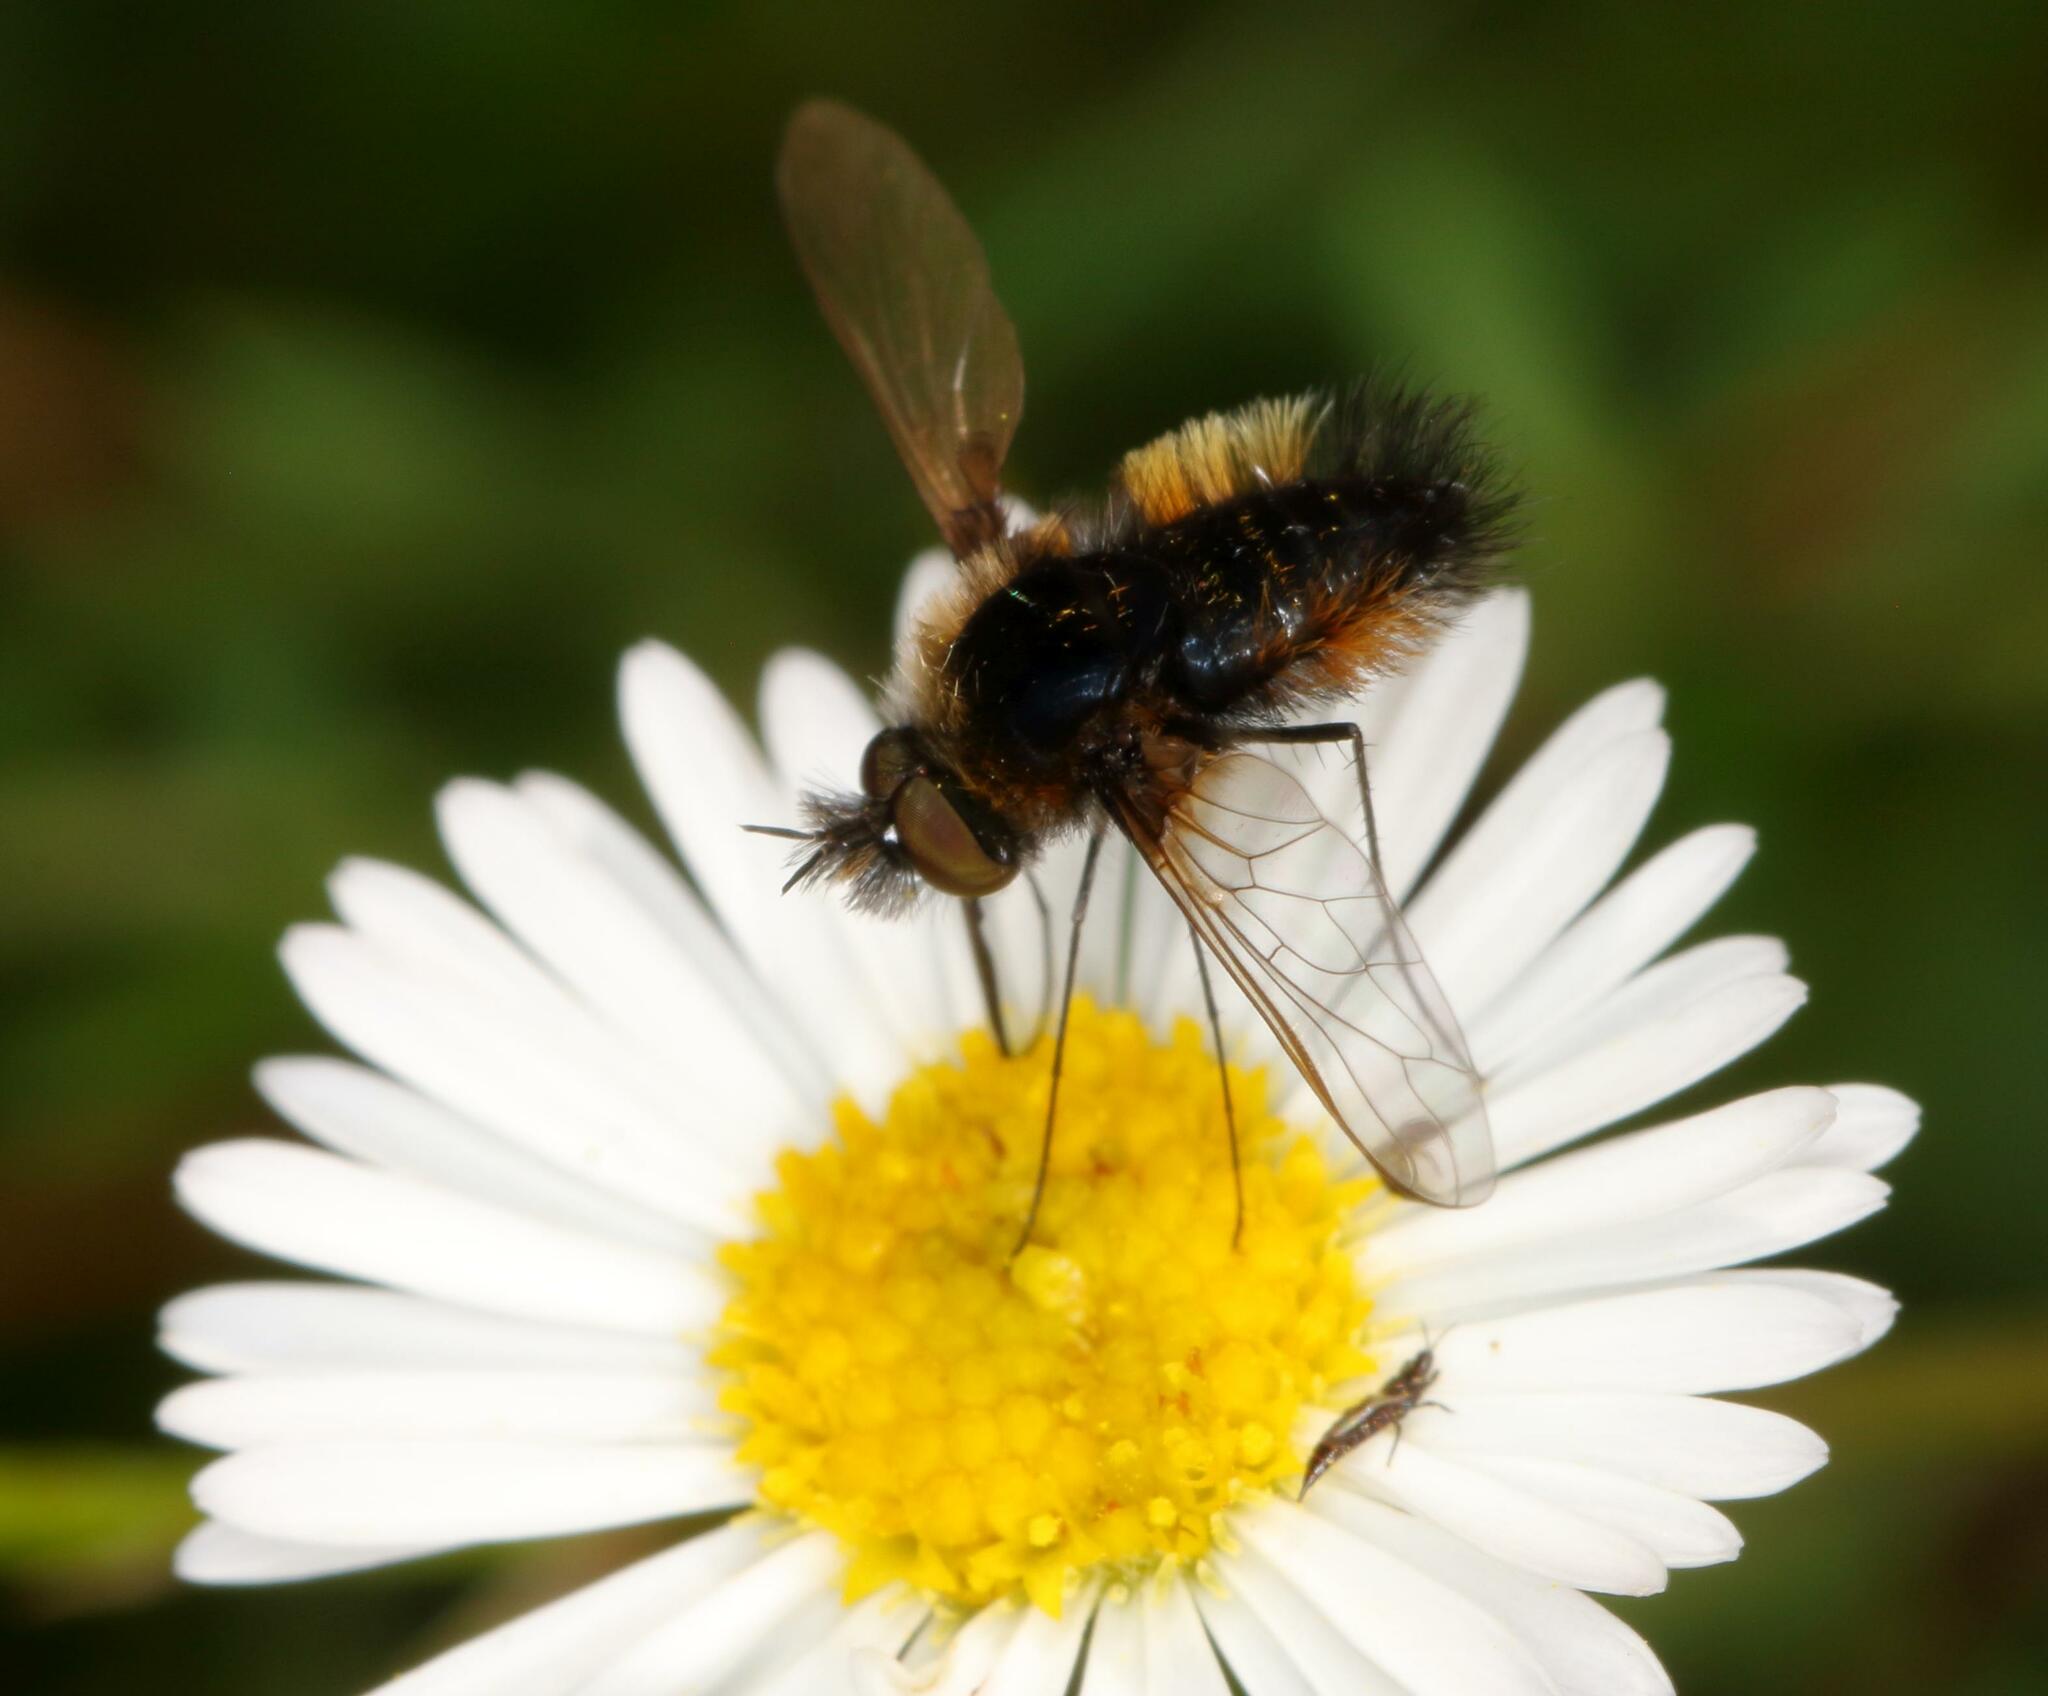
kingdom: Animalia
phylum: Arthropoda
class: Insecta
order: Diptera
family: Bombyliidae
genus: Bombylella
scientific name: Bombylella elegans
